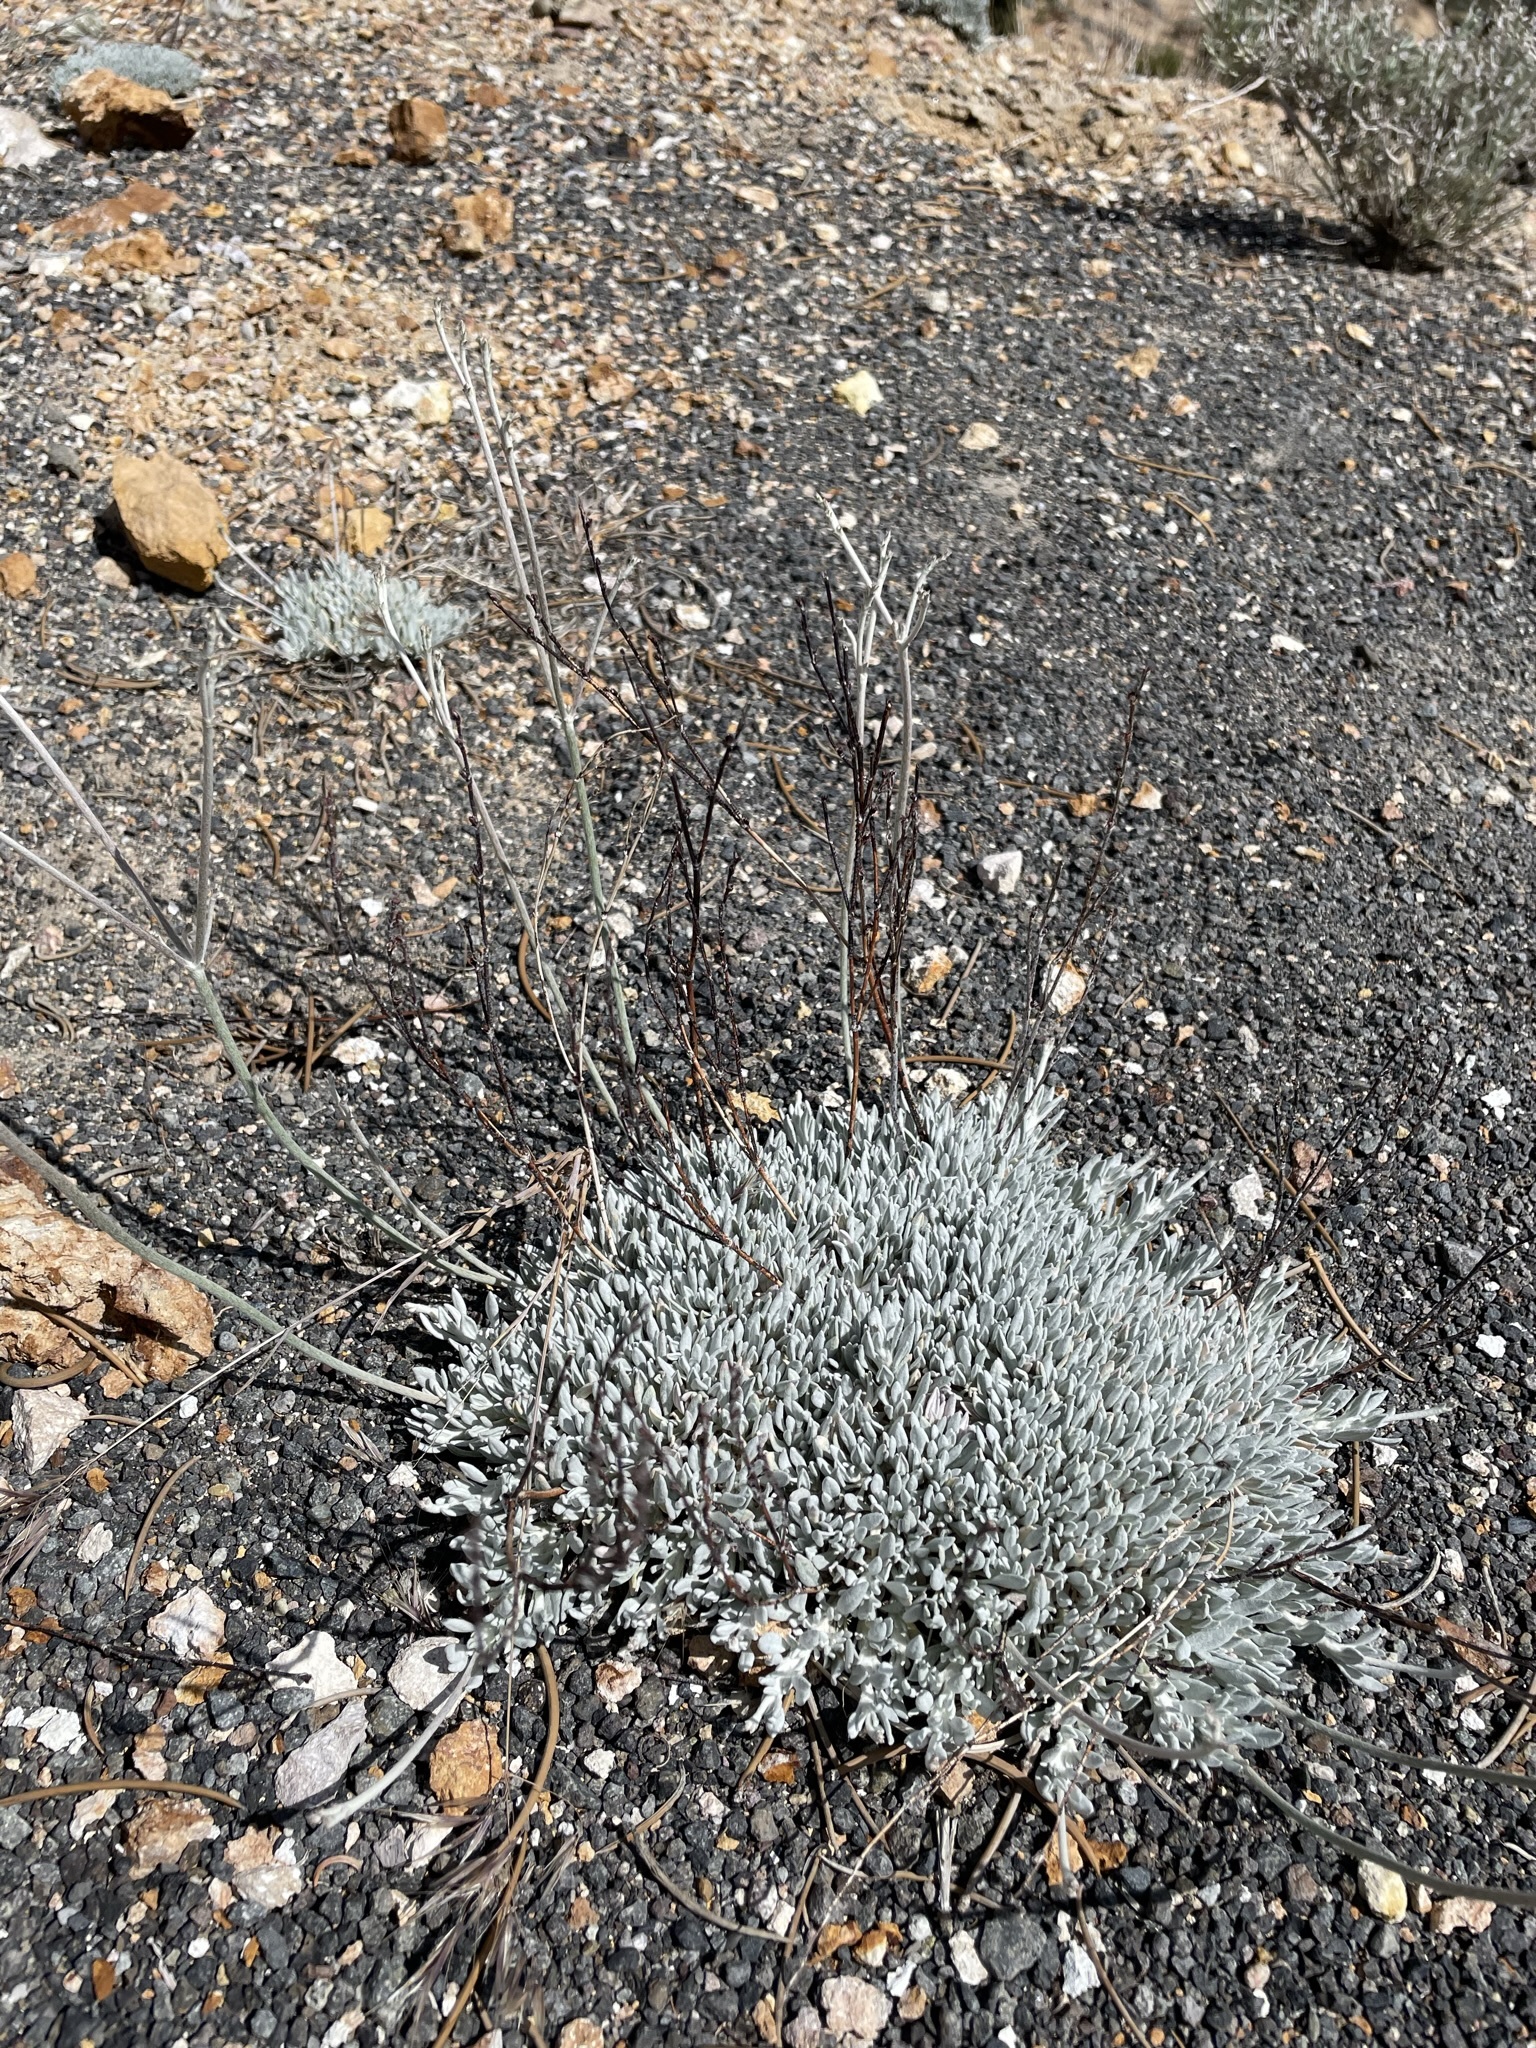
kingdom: Plantae
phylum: Tracheophyta
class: Magnoliopsida
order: Caryophyllales
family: Polygonaceae
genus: Eriogonum
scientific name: Eriogonum wrightii
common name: Bastard-sage
